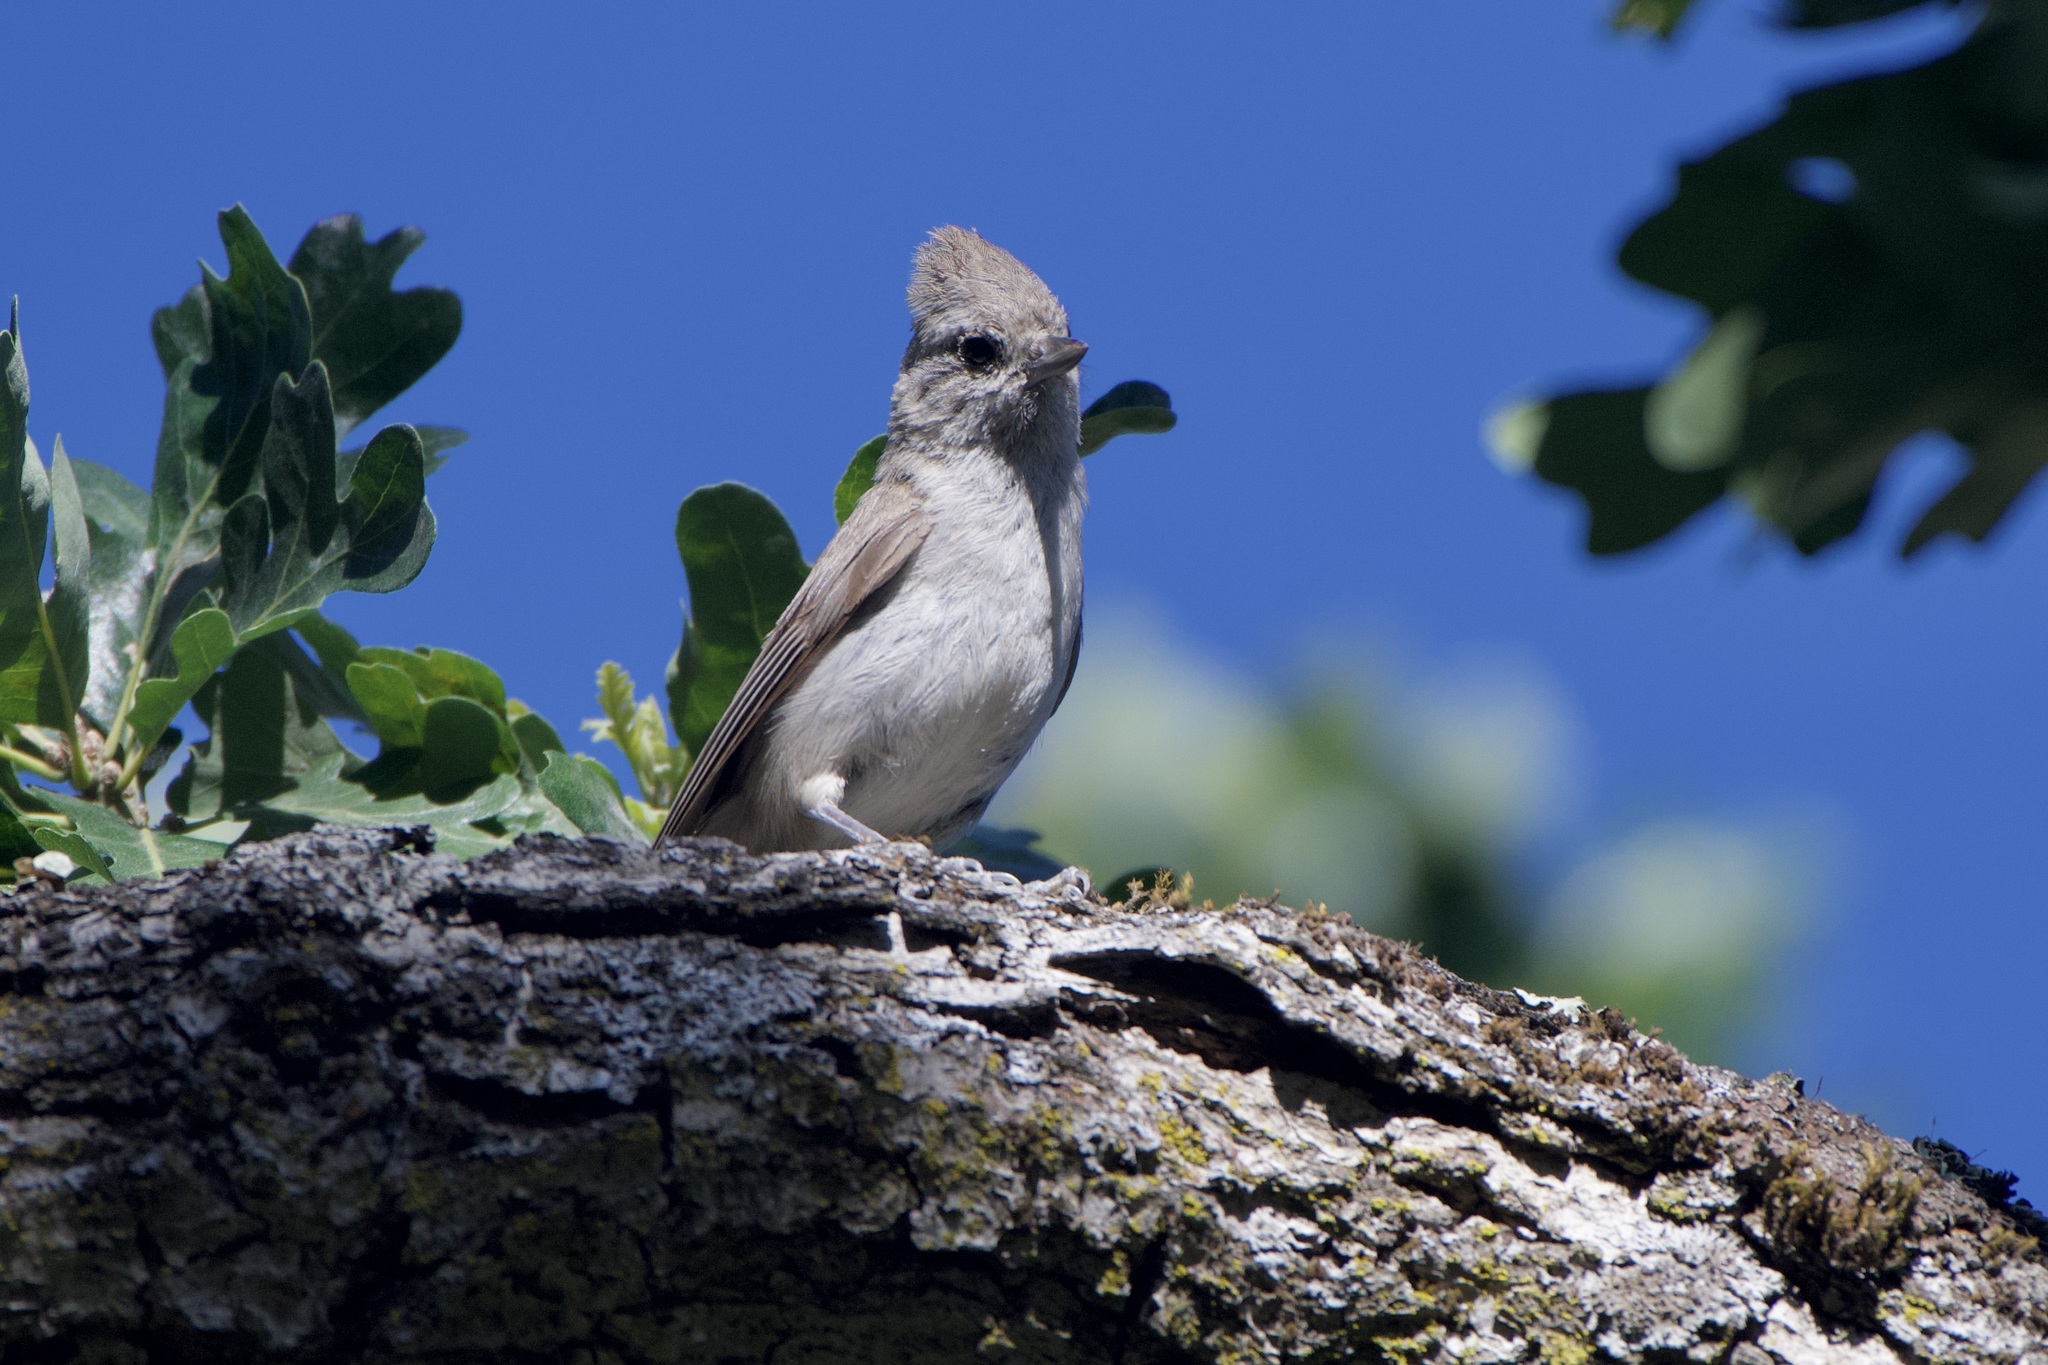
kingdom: Animalia
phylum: Chordata
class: Aves
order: Passeriformes
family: Paridae
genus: Baeolophus
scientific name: Baeolophus inornatus
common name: Oak titmouse
